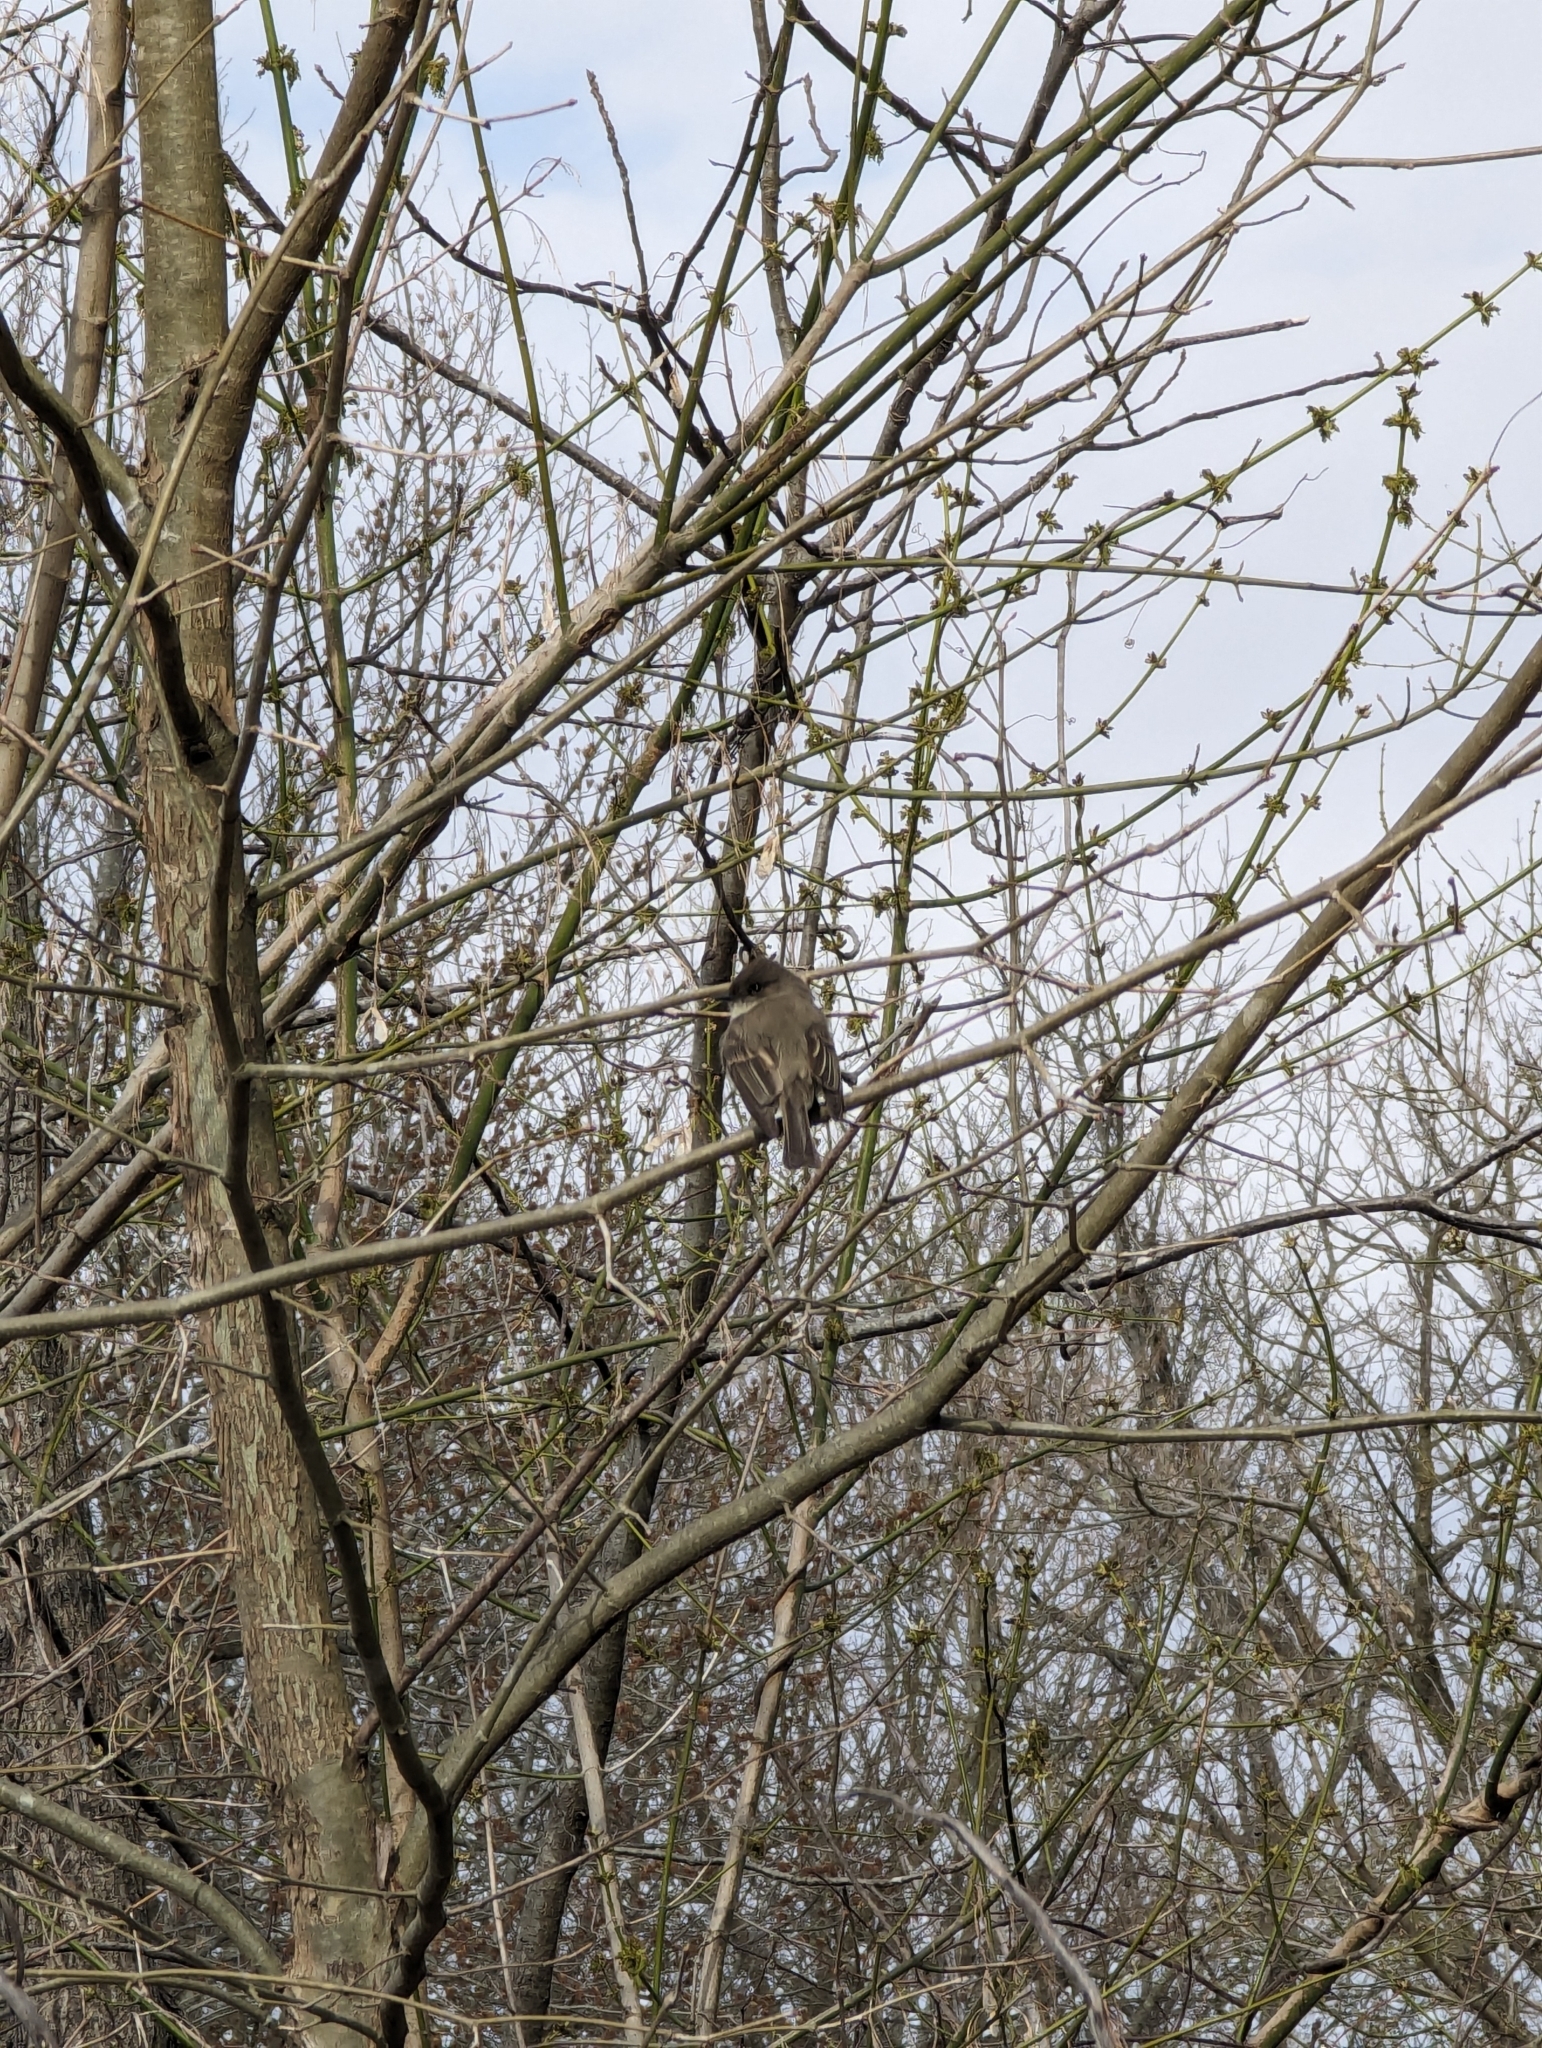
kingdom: Animalia
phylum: Chordata
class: Aves
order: Passeriformes
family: Tyrannidae
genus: Sayornis
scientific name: Sayornis phoebe
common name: Eastern phoebe
